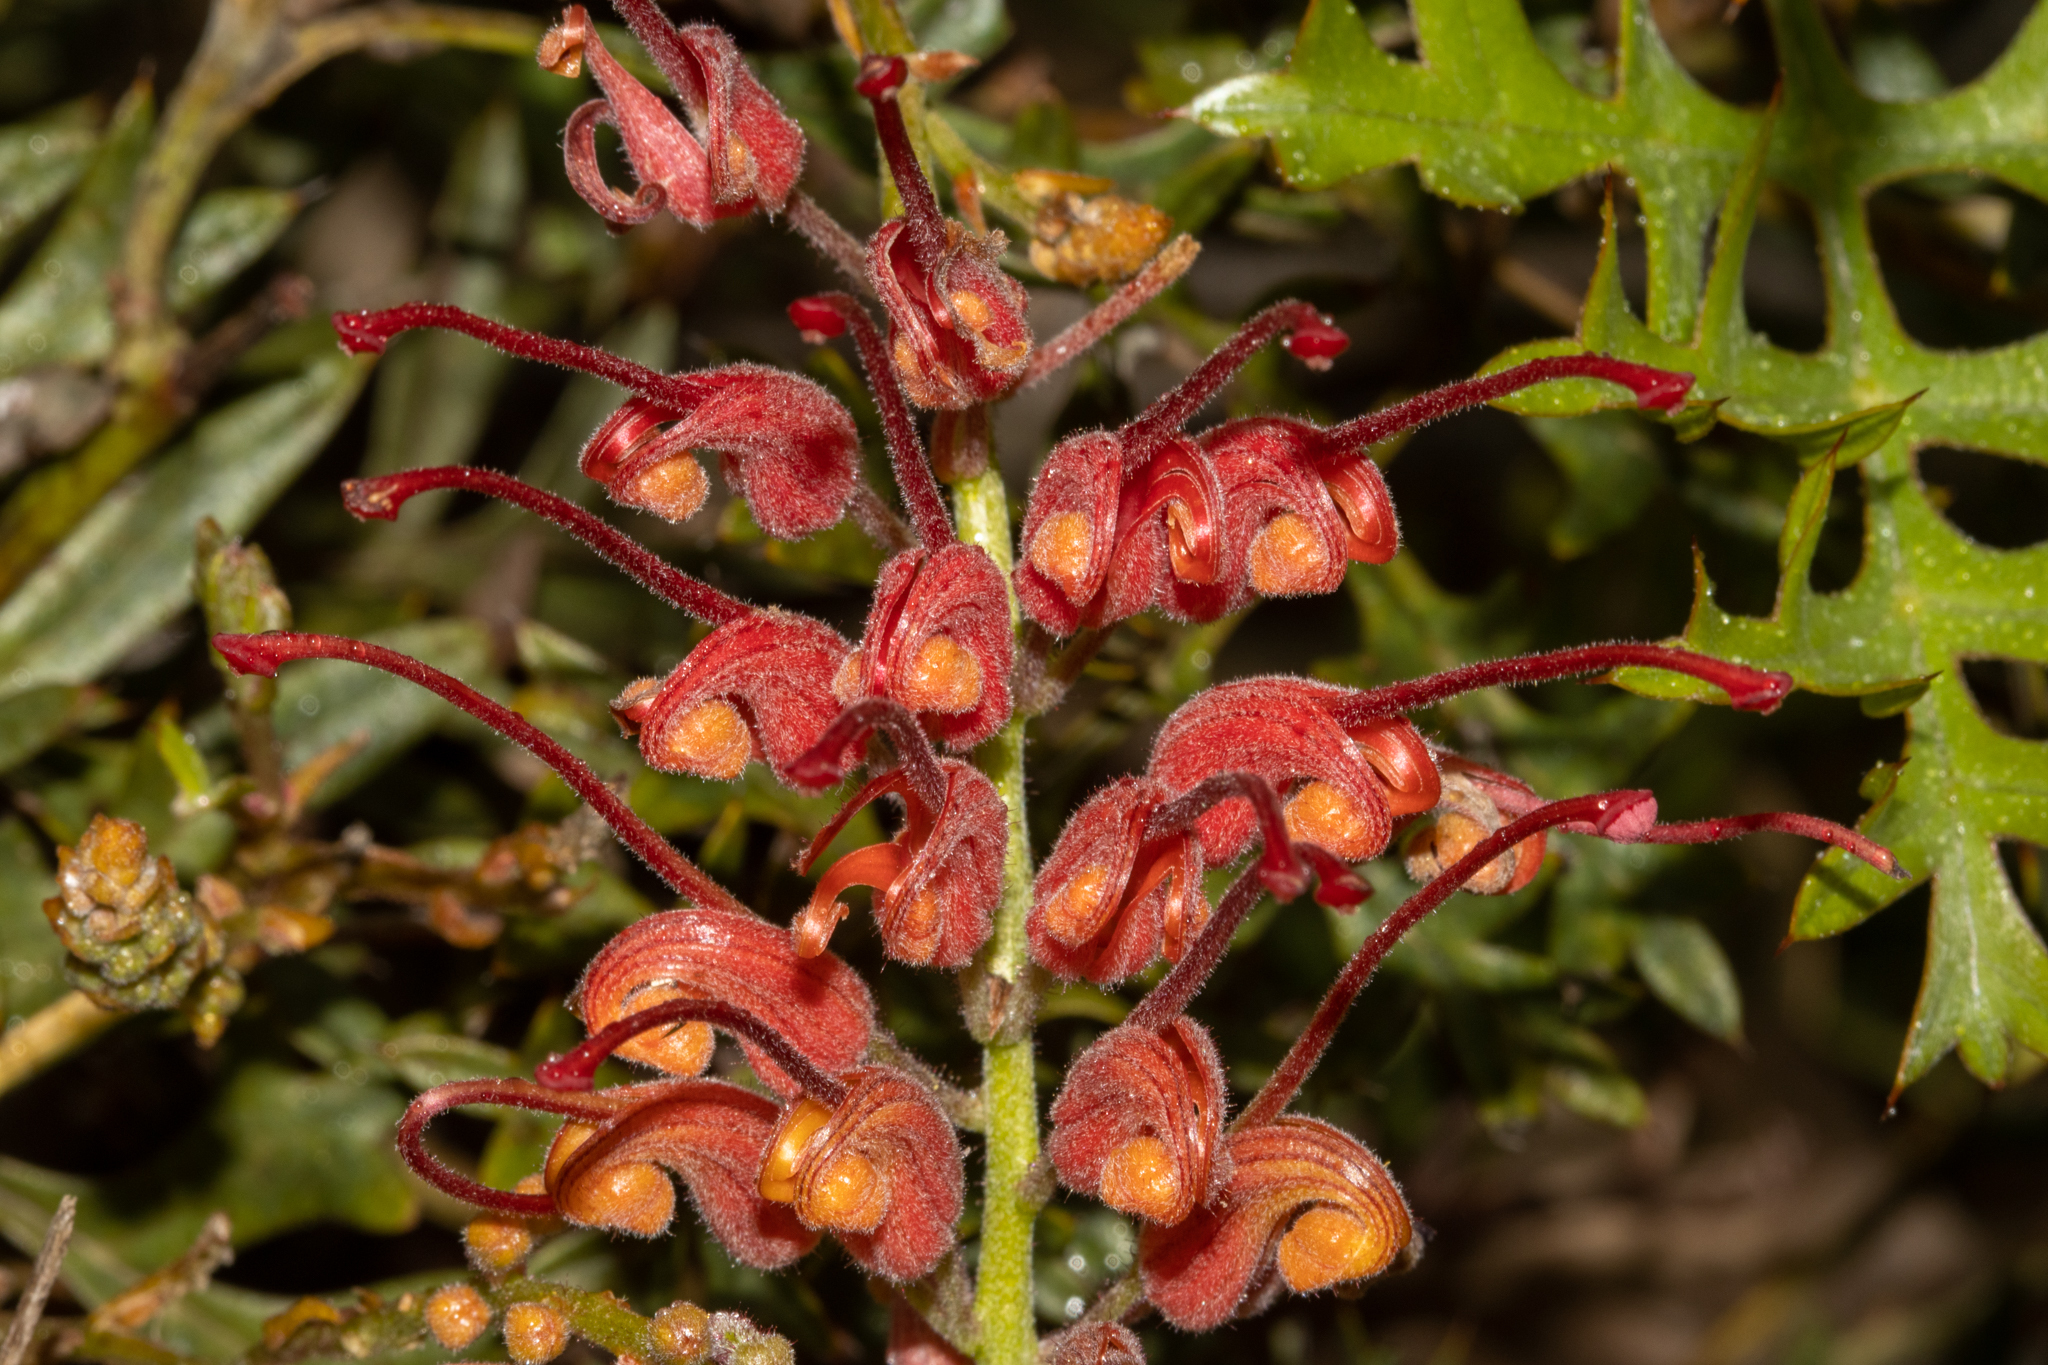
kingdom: Plantae
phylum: Tracheophyta
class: Magnoliopsida
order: Proteales
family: Proteaceae
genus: Grevillea
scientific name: Grevillea bipinnatifida
